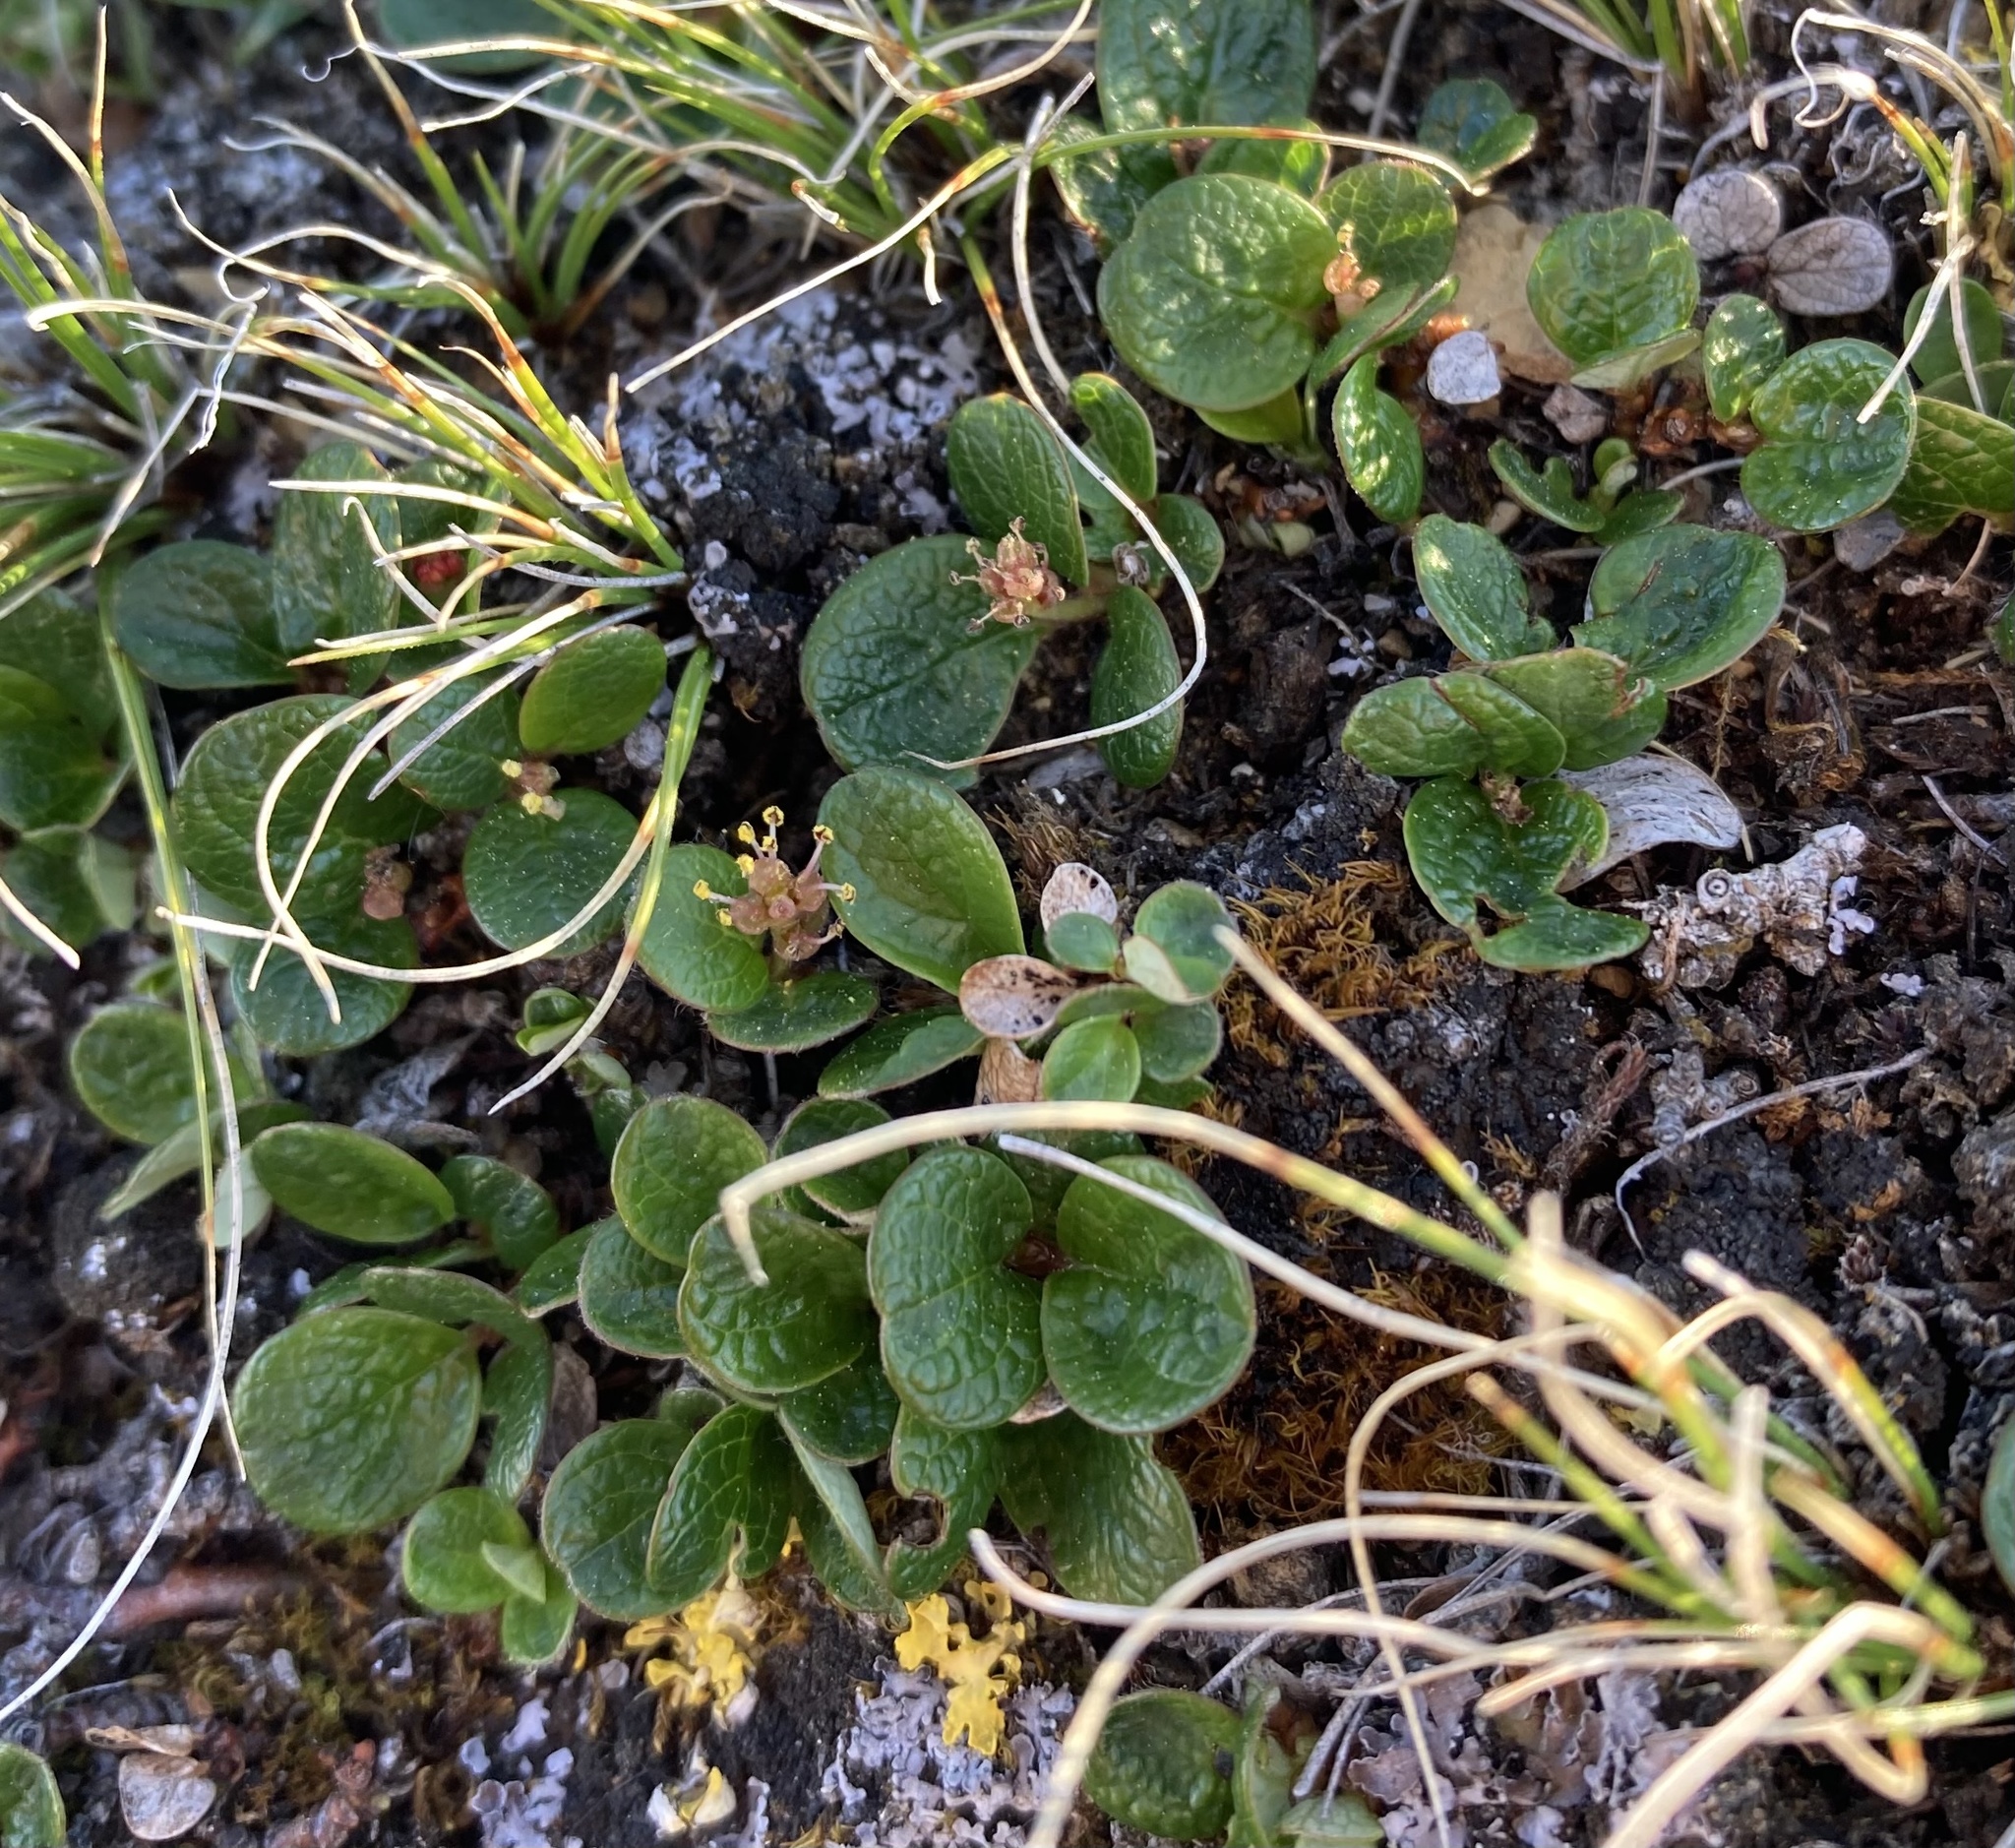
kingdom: Plantae
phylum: Tracheophyta
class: Magnoliopsida
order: Malpighiales
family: Salicaceae
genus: Salix
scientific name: Salix nivalis
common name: Dwarf snow willow
